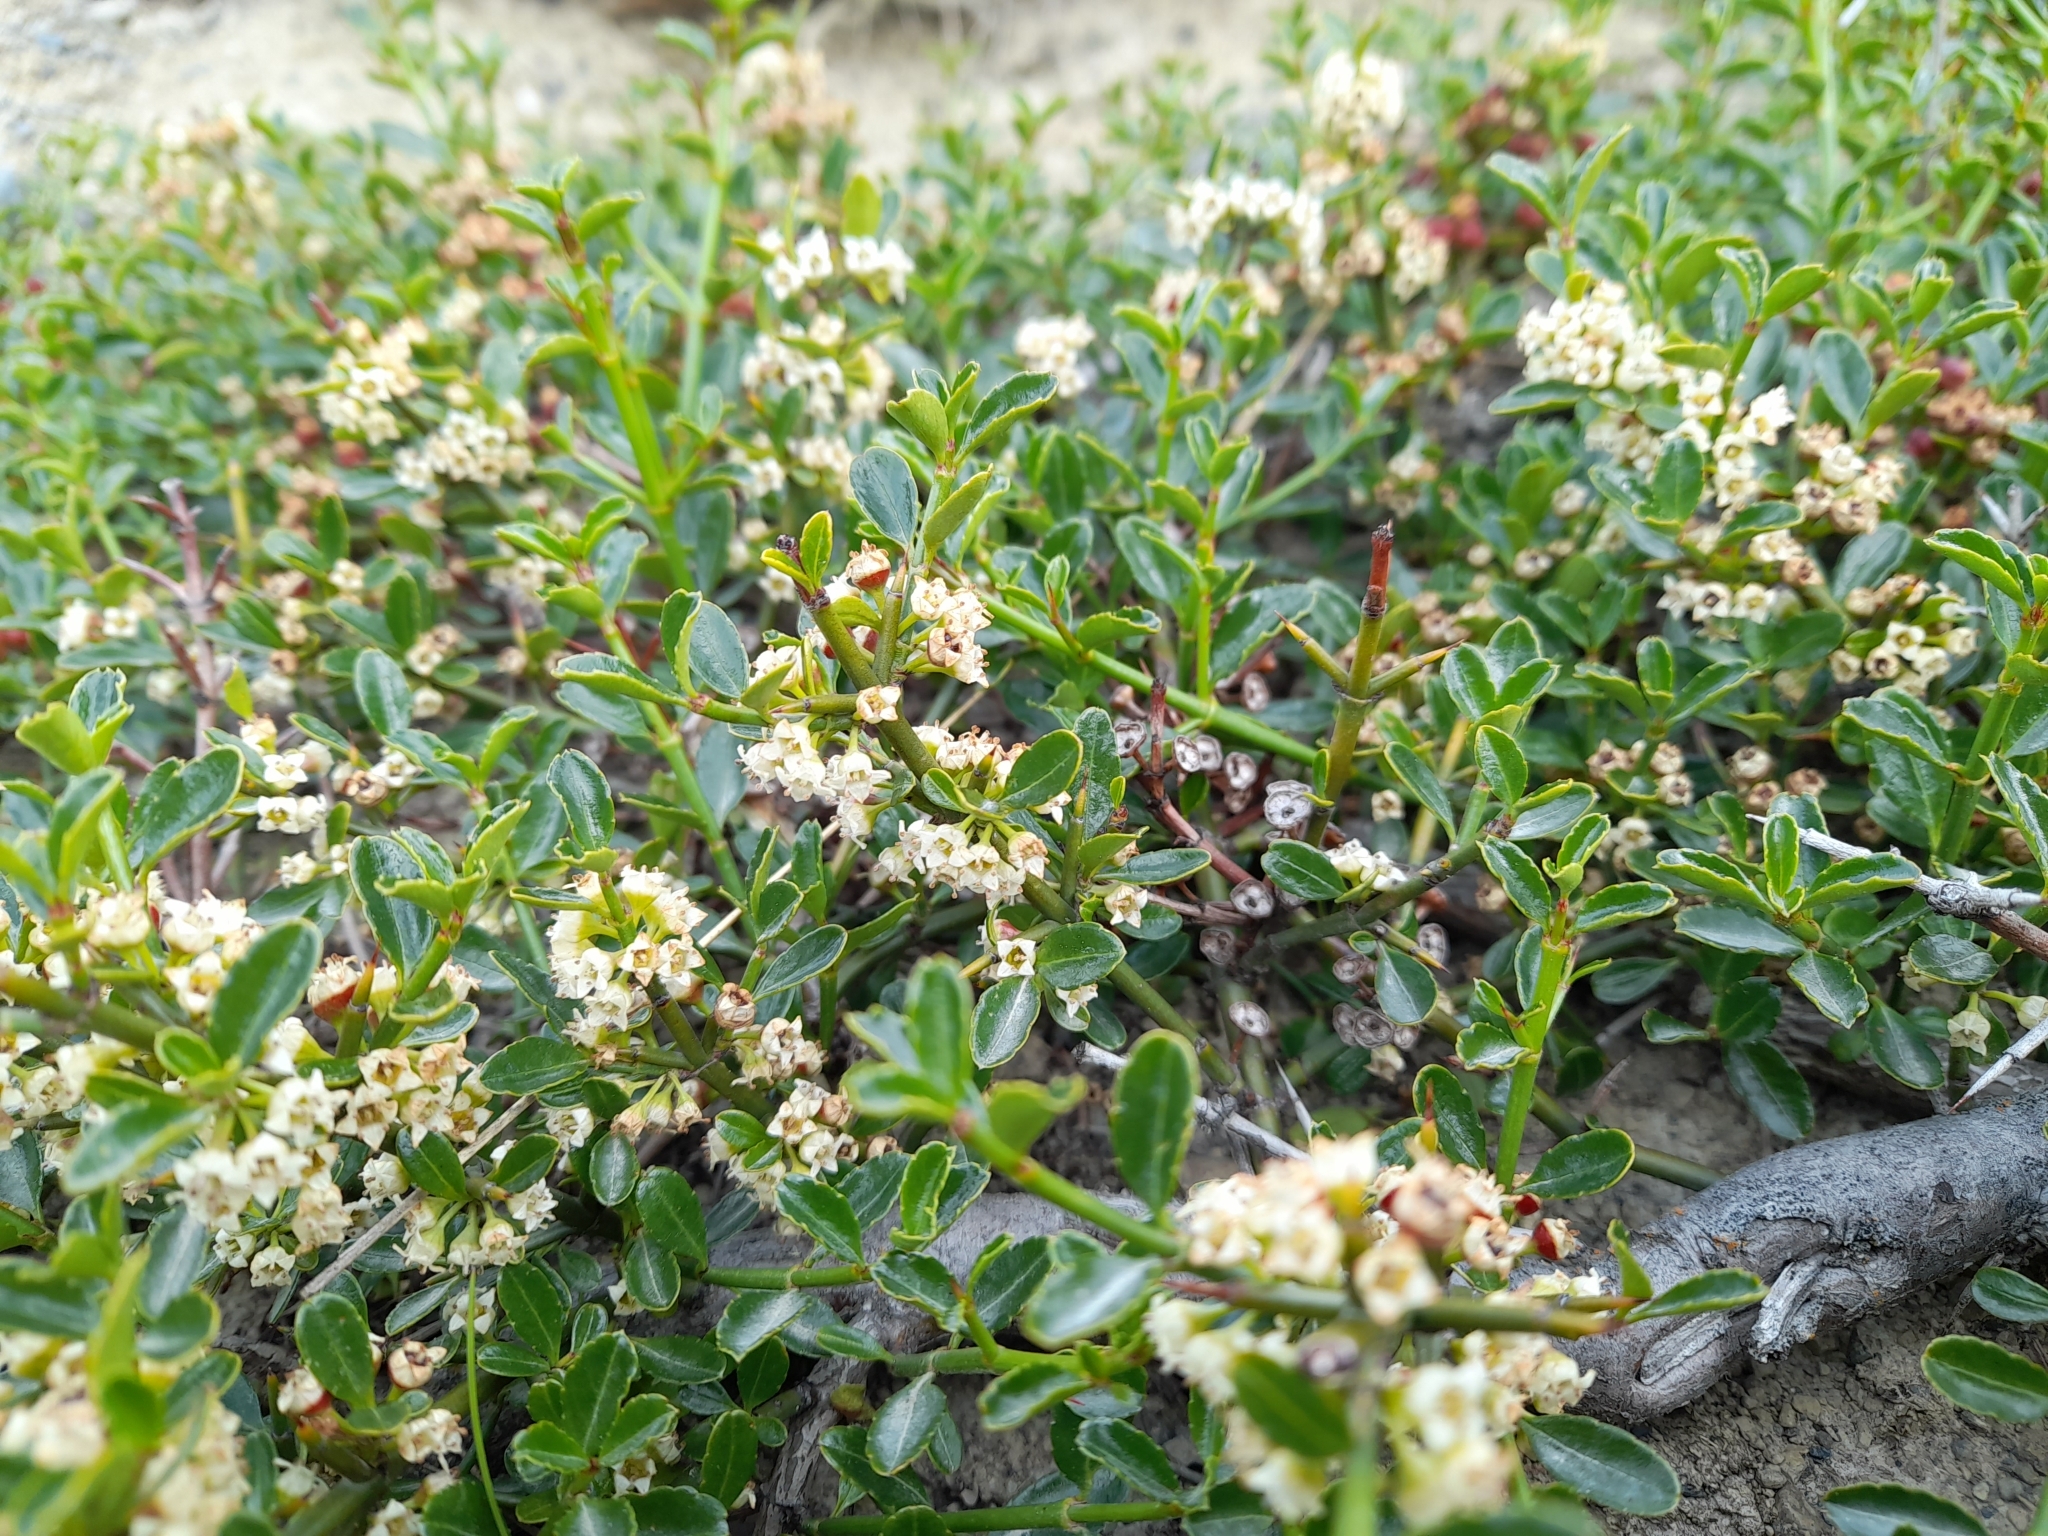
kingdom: Plantae
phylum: Tracheophyta
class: Magnoliopsida
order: Rosales
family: Rhamnaceae
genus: Discaria
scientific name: Discaria chacaye
